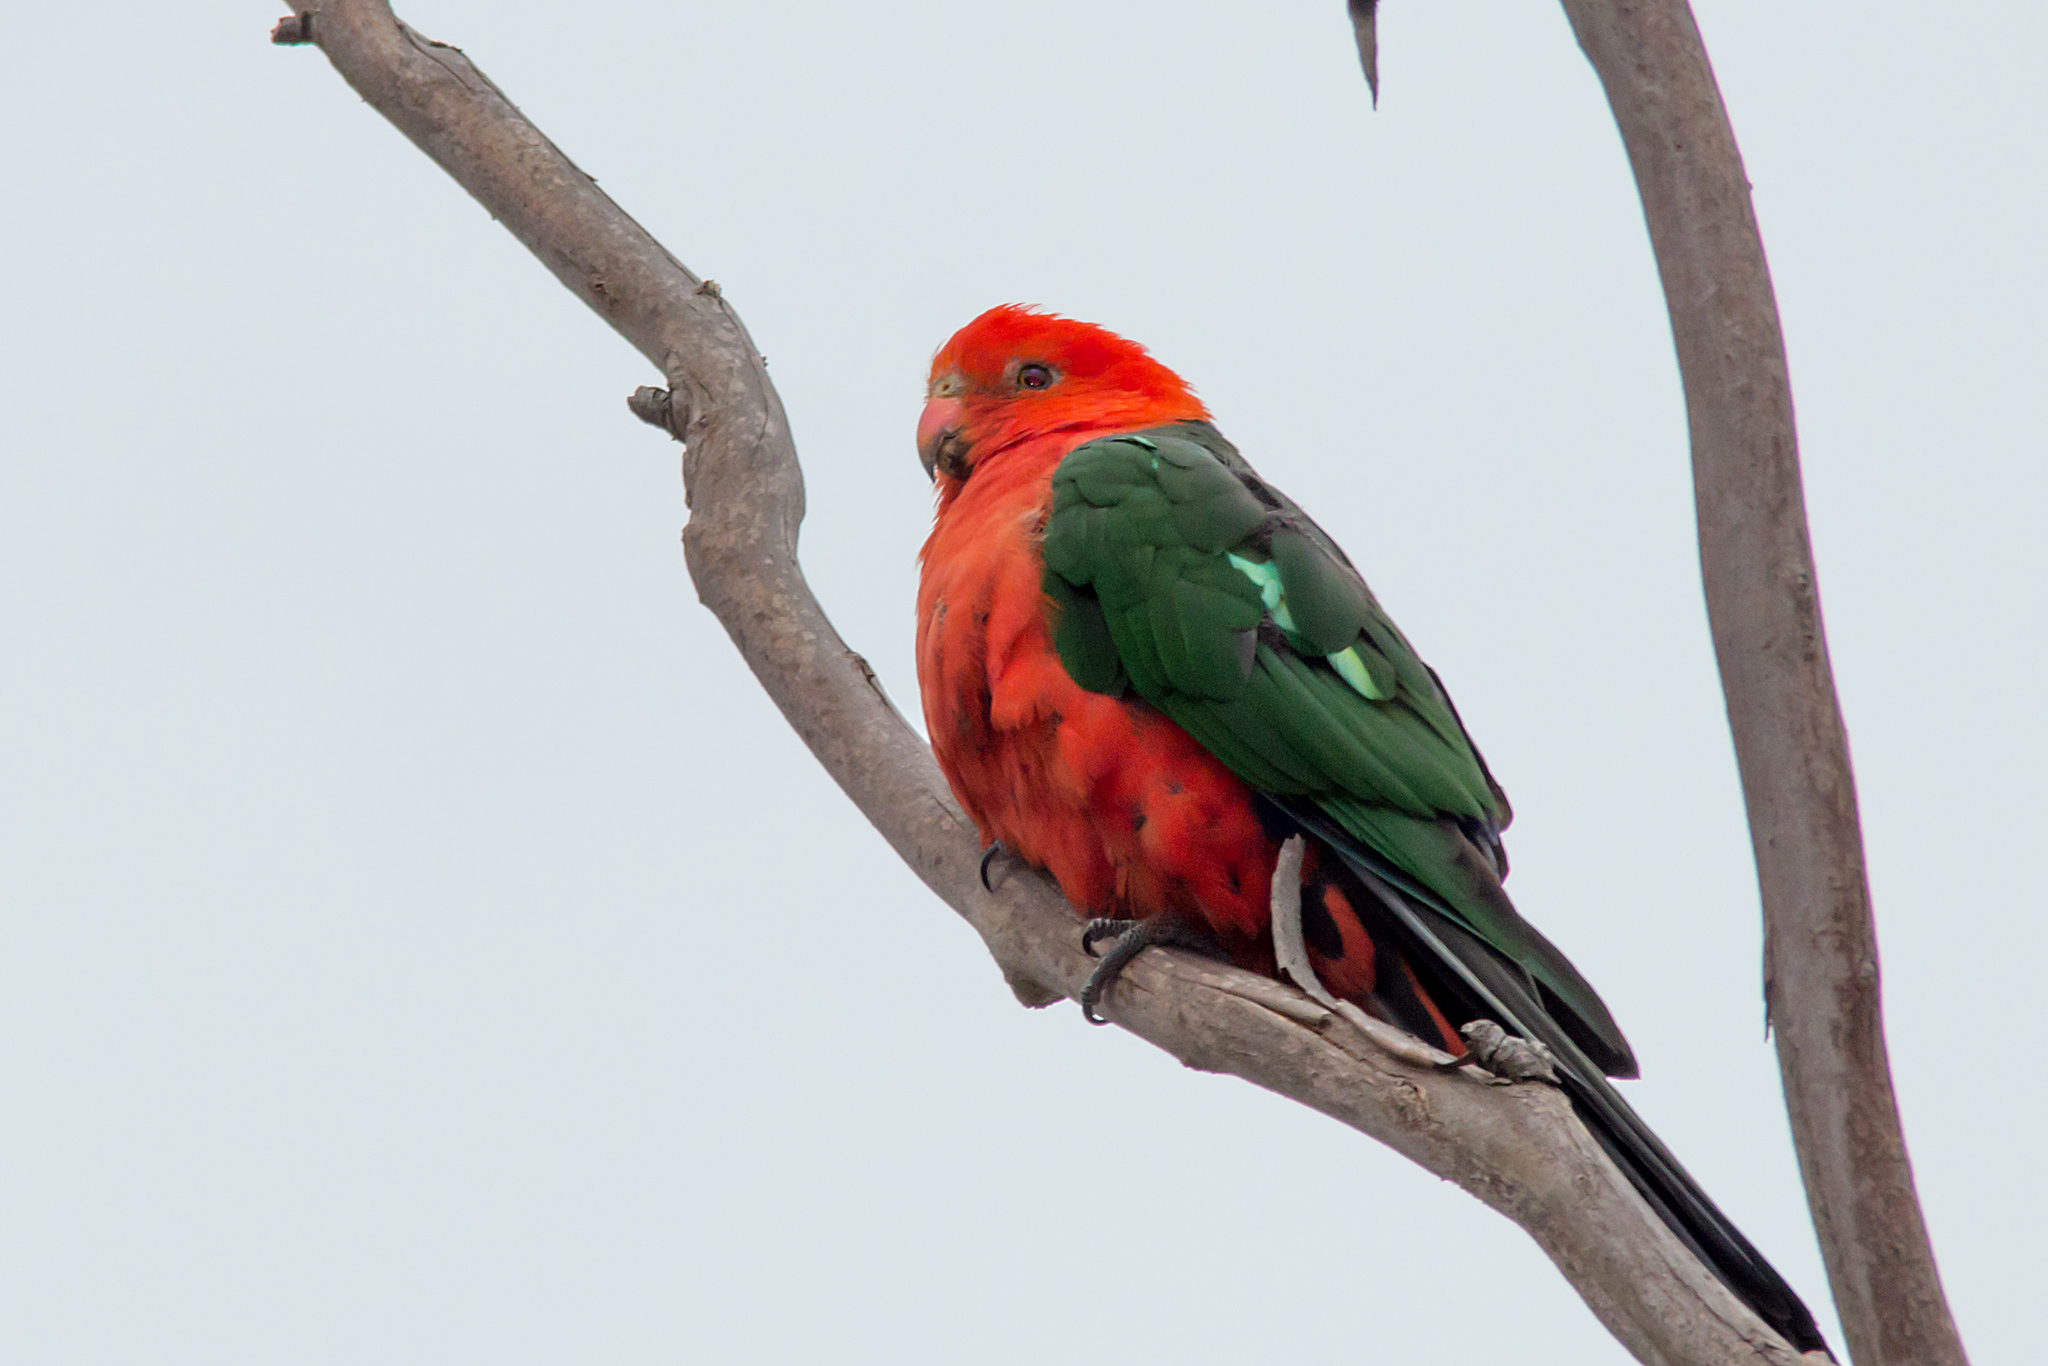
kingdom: Animalia
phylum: Chordata
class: Aves
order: Psittaciformes
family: Psittacidae
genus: Alisterus
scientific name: Alisterus scapularis
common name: Australian king parrot
